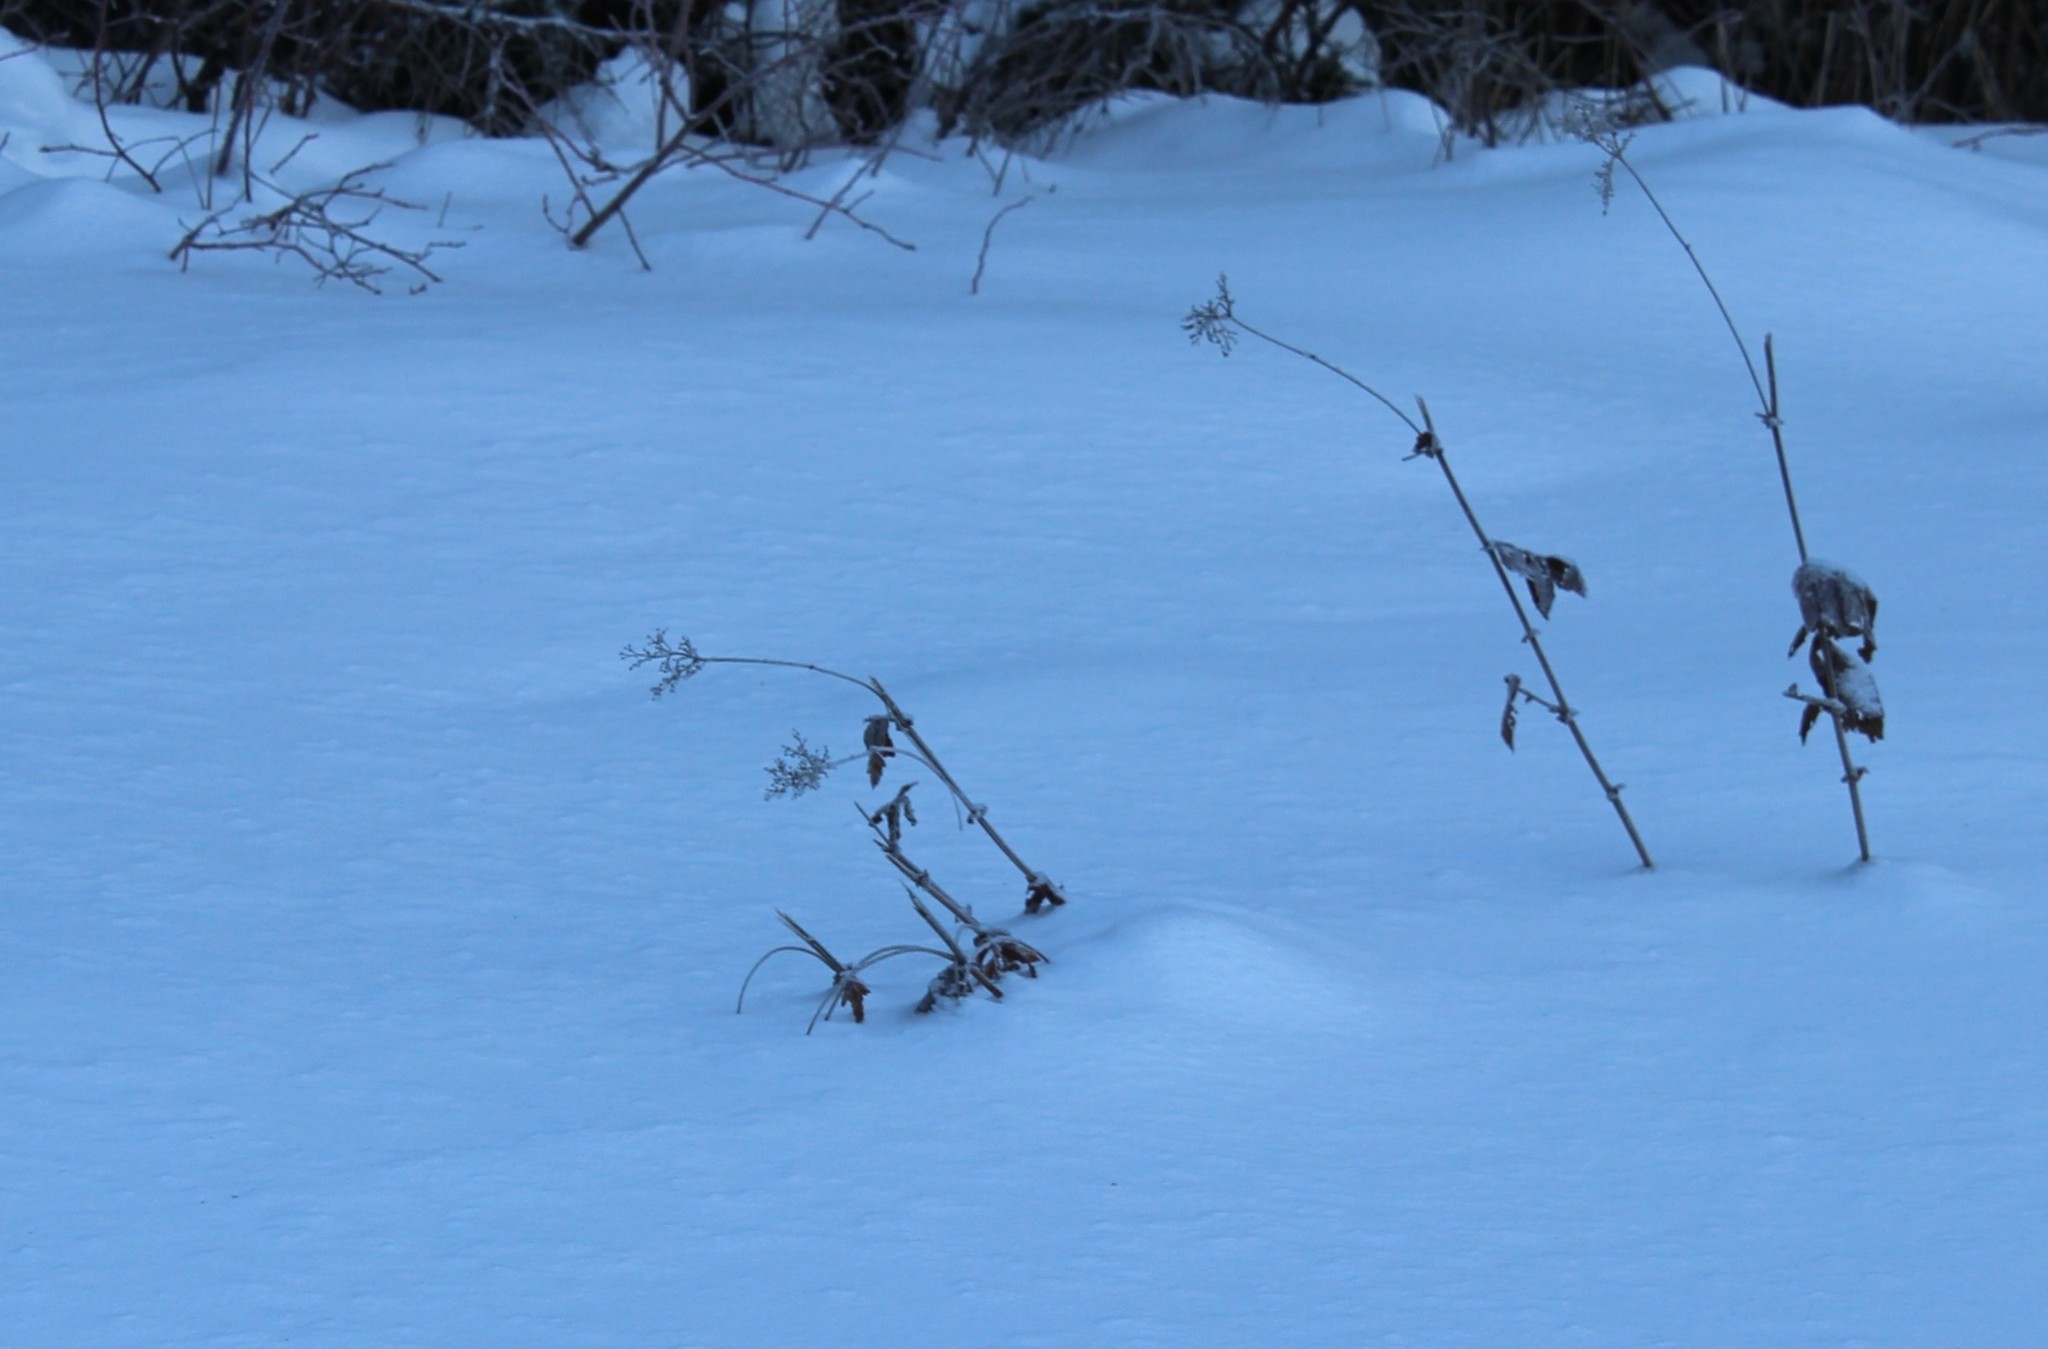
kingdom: Plantae
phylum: Tracheophyta
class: Magnoliopsida
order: Rosales
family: Rosaceae
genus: Filipendula
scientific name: Filipendula ulmaria
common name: Meadowsweet
